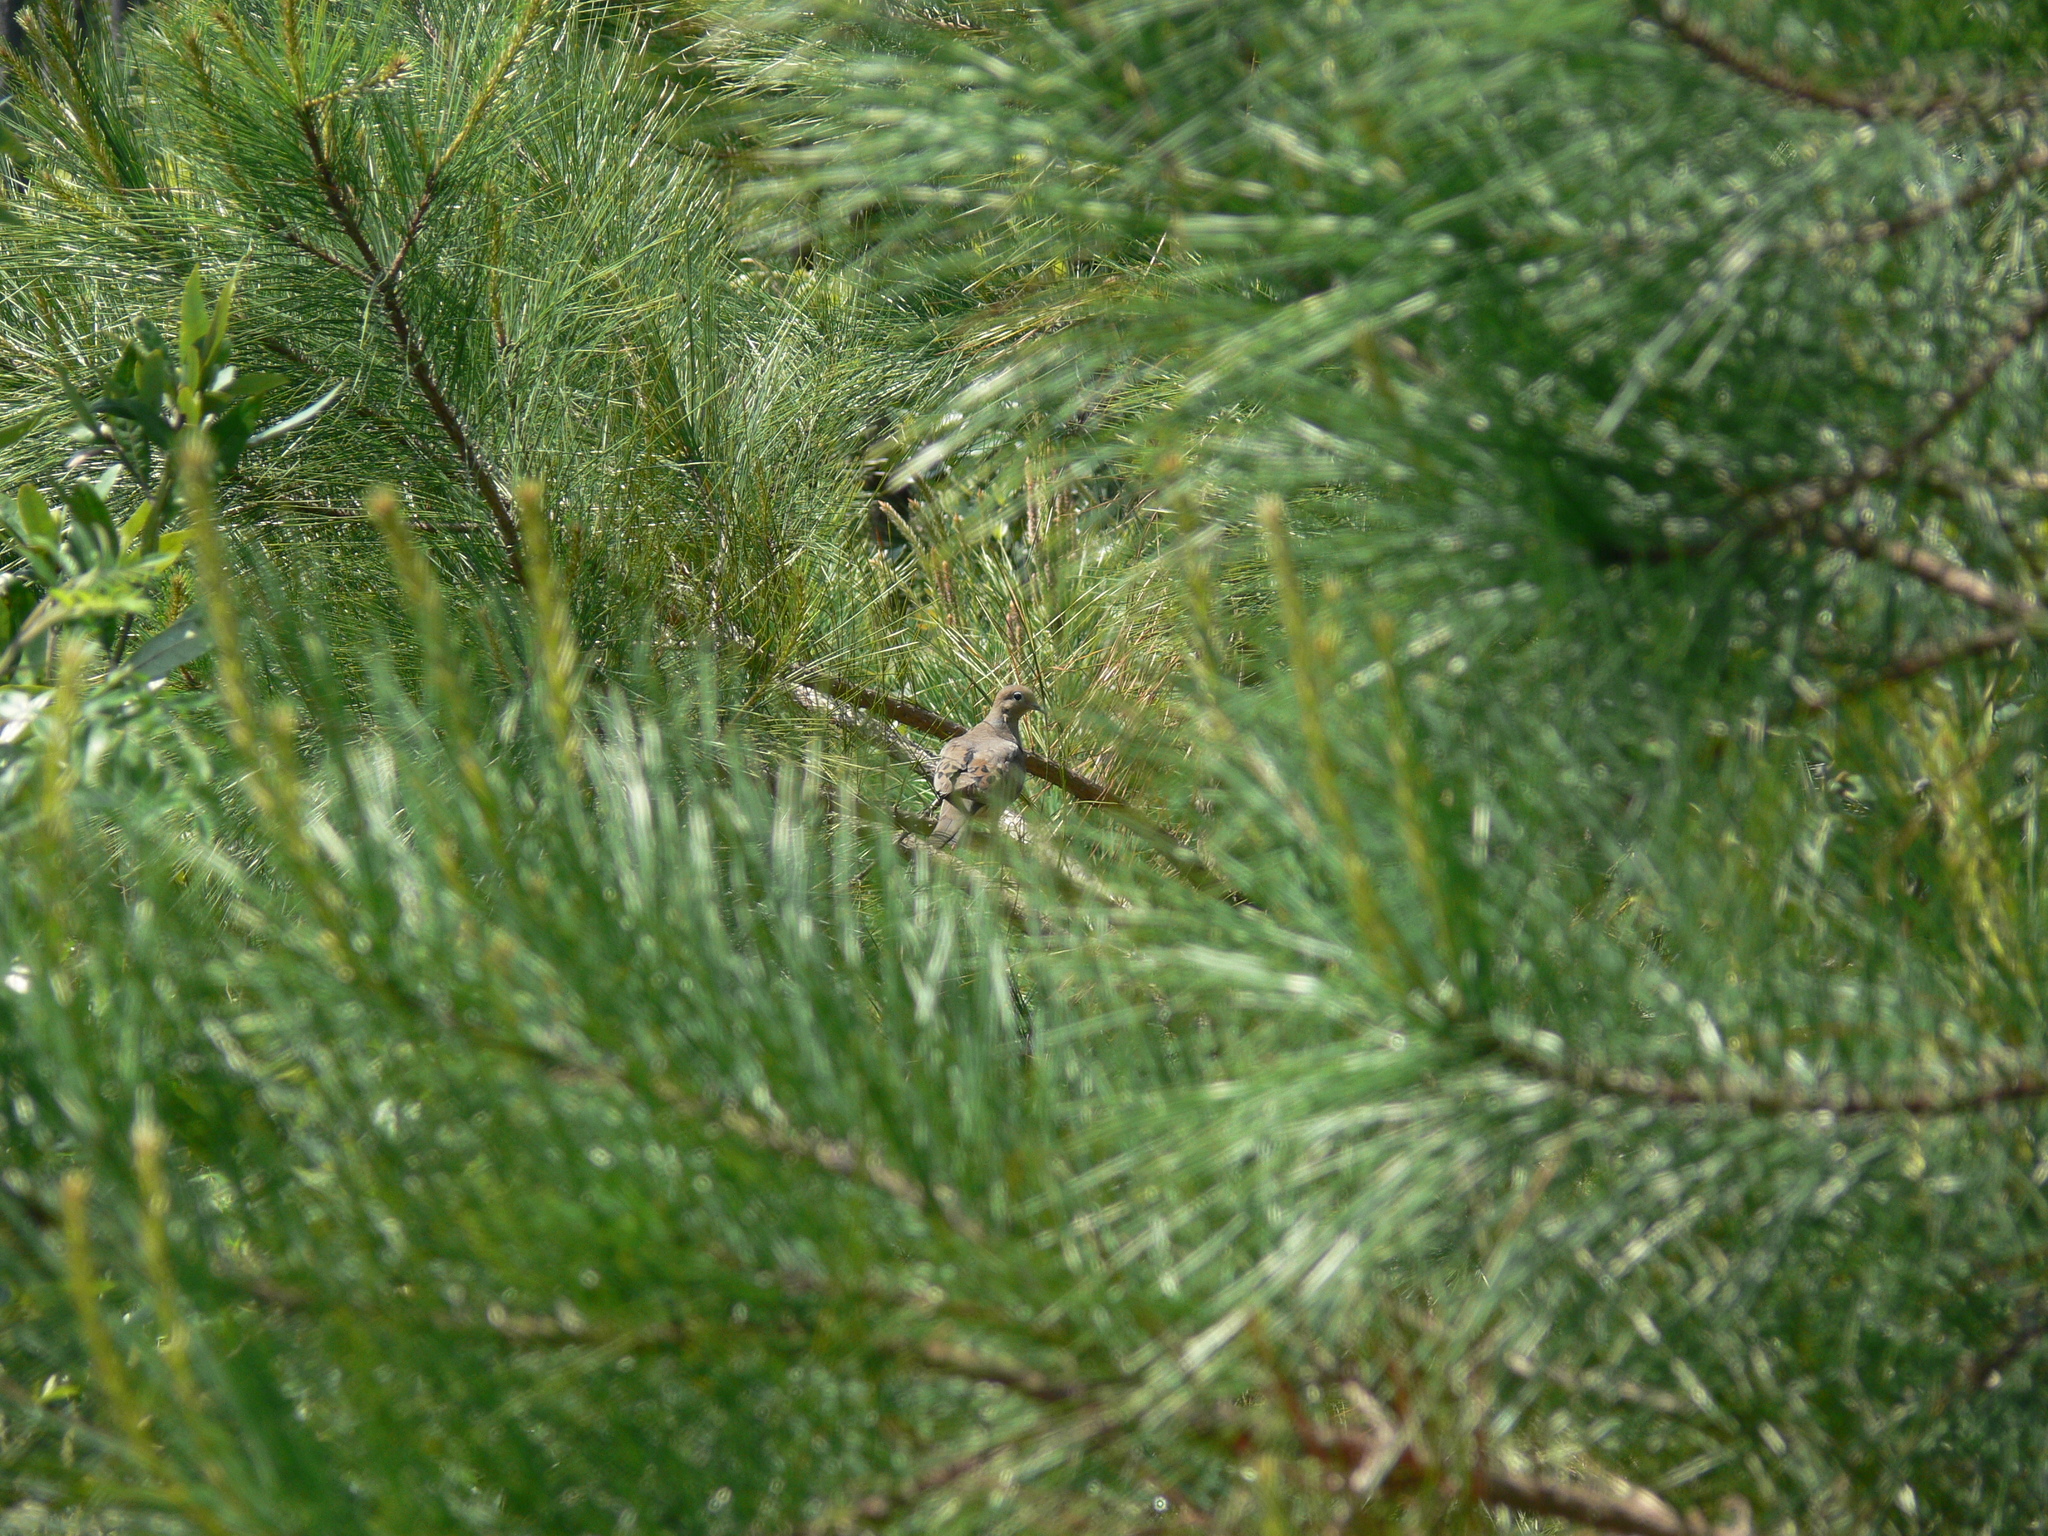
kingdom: Animalia
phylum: Chordata
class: Aves
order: Columbiformes
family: Columbidae
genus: Zenaida
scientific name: Zenaida macroura
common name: Mourning dove
